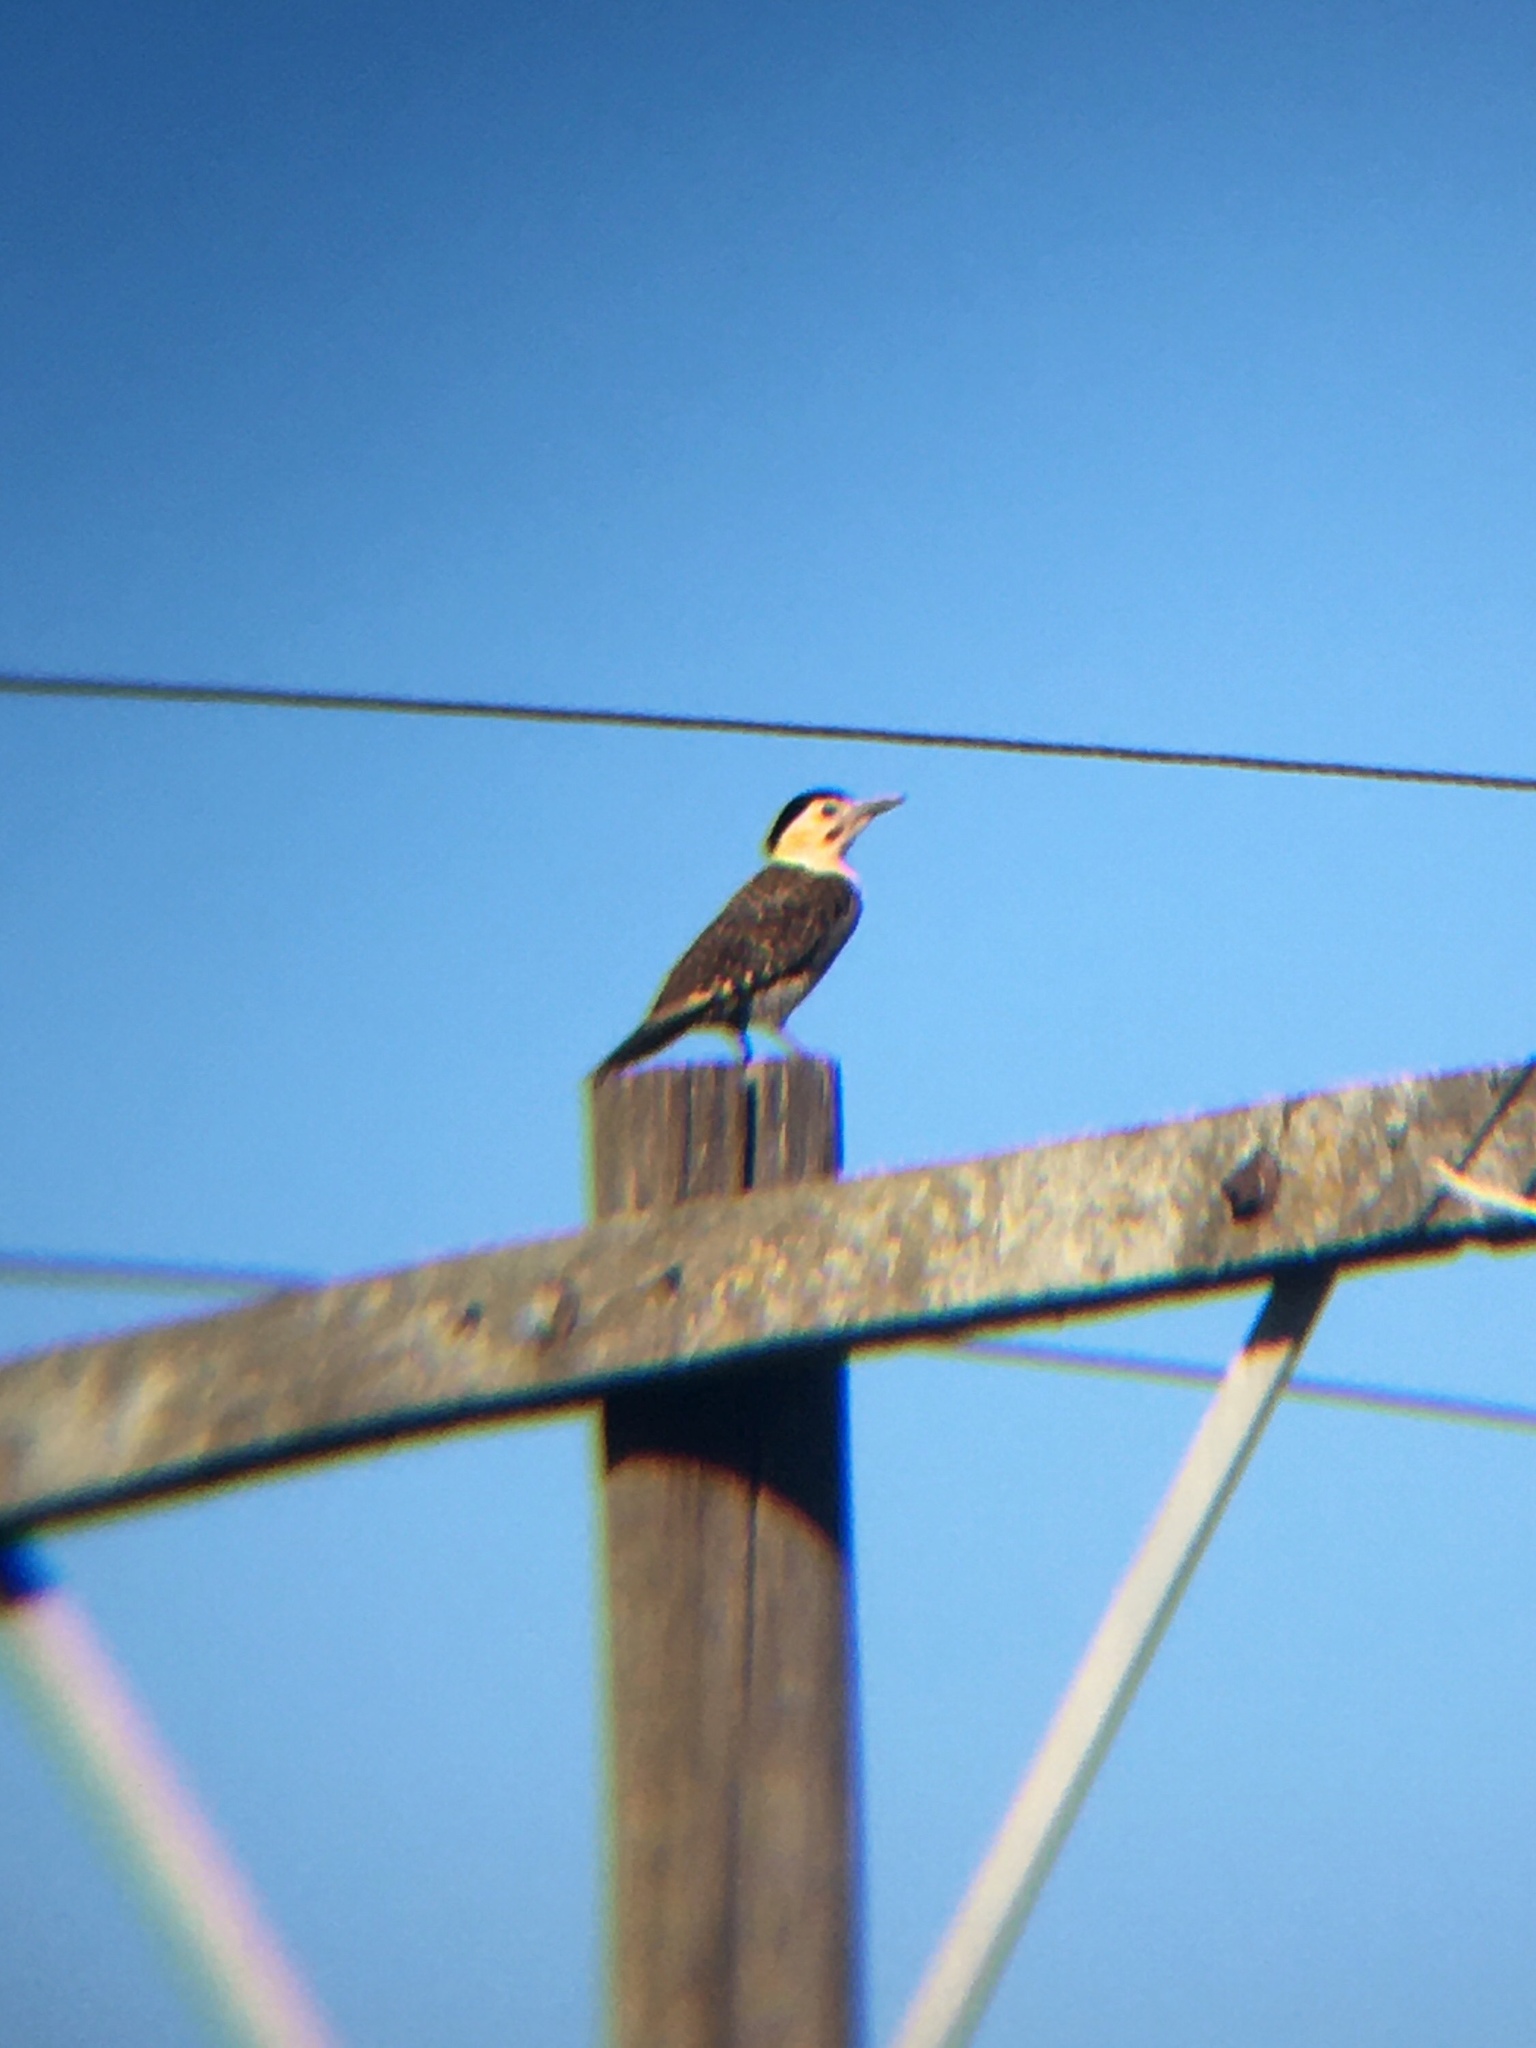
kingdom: Animalia
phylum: Chordata
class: Aves
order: Piciformes
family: Picidae
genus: Colaptes
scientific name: Colaptes campestris
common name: Campo flicker
